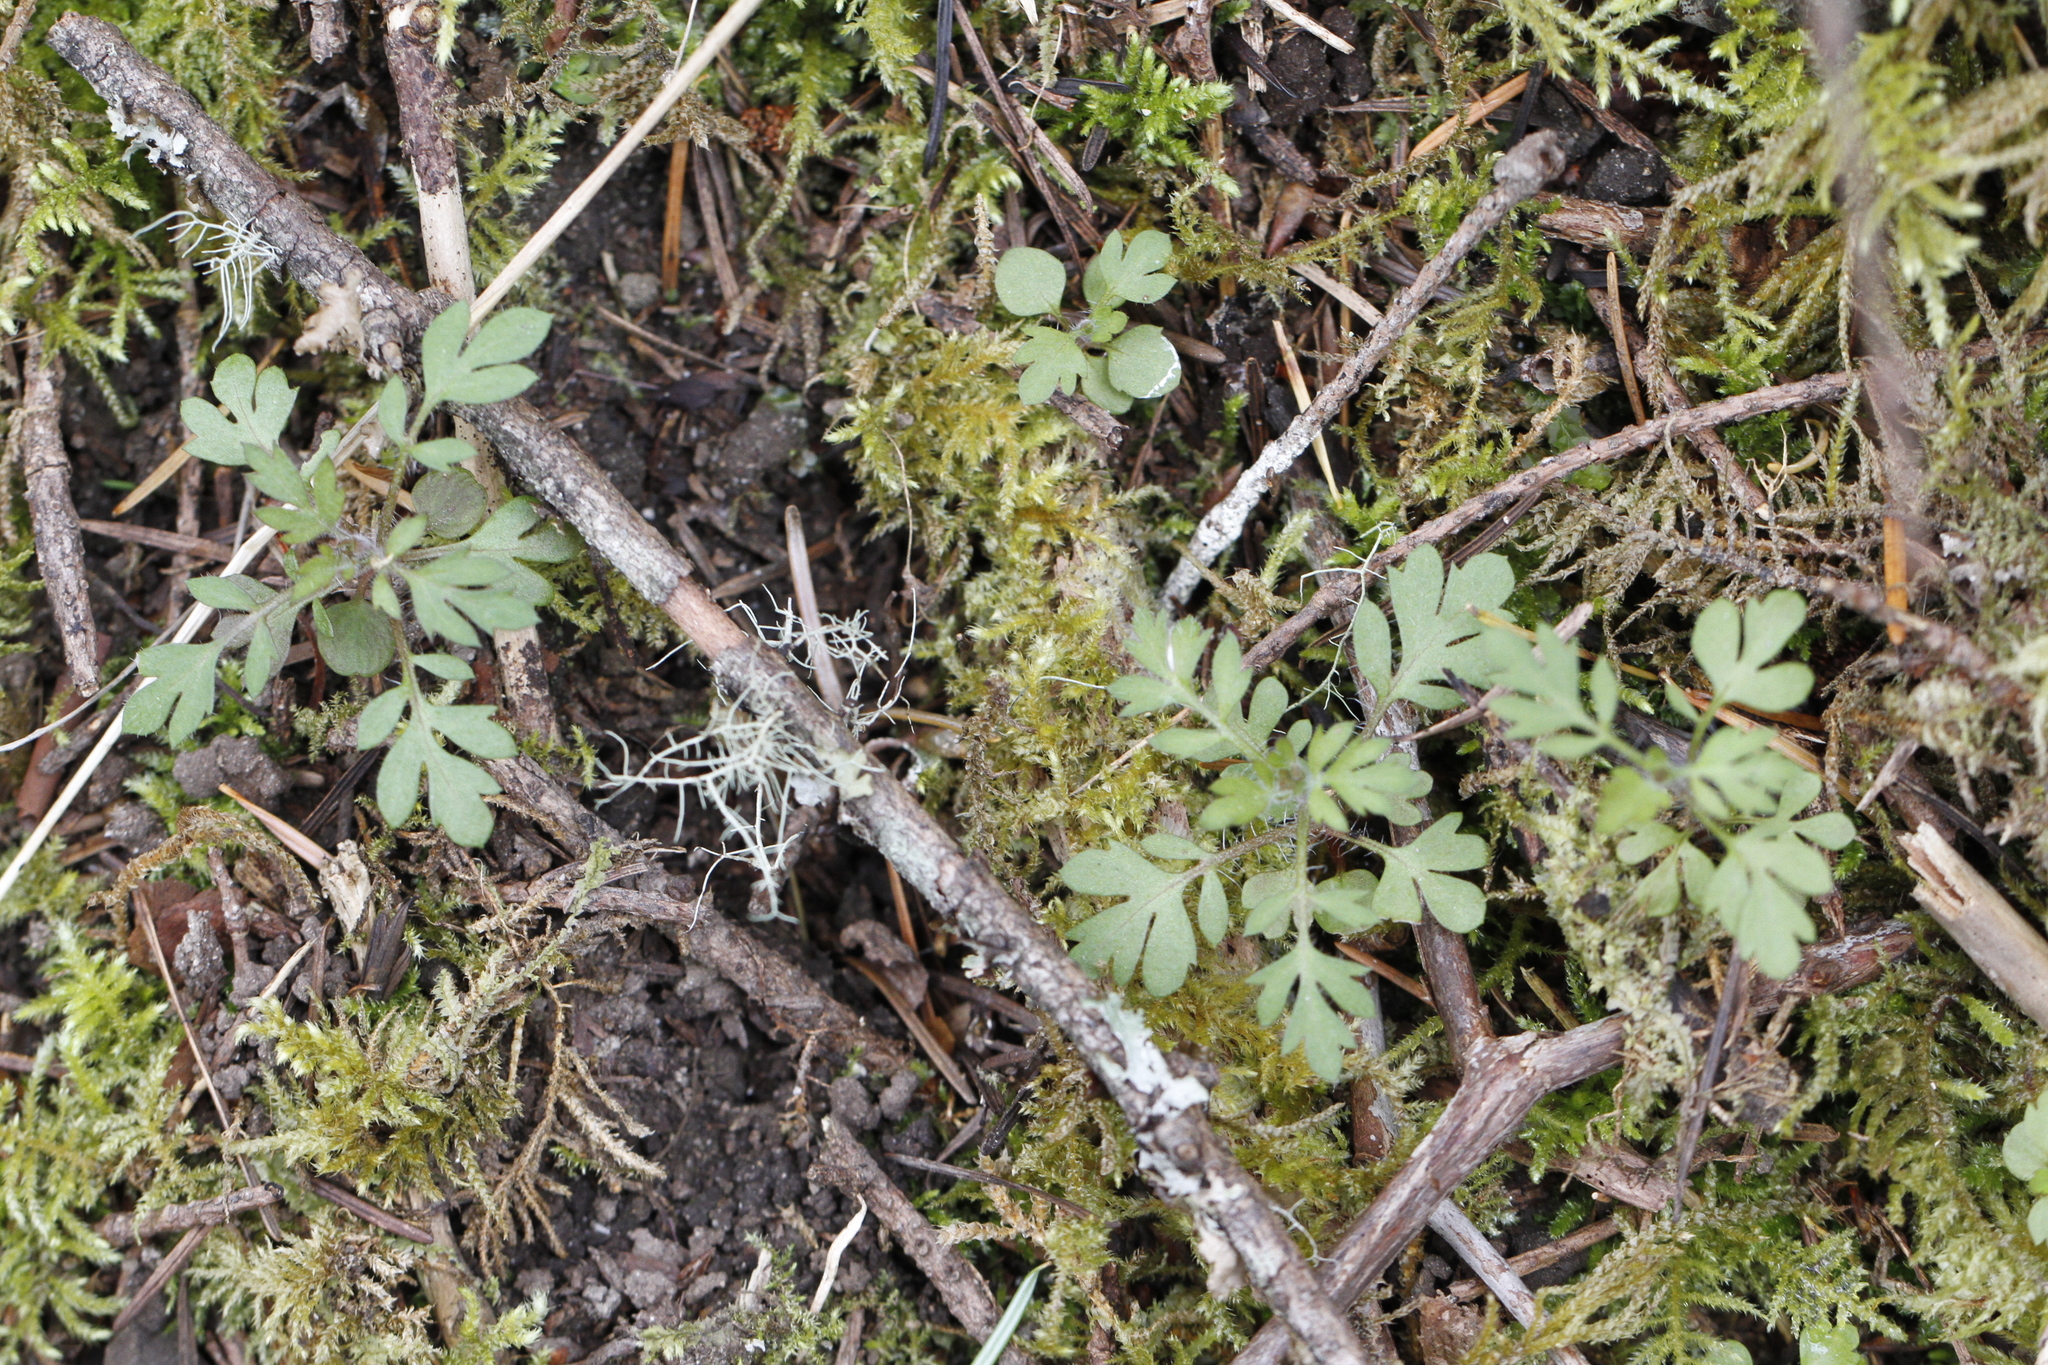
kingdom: Plantae
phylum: Tracheophyta
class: Magnoliopsida
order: Ericales
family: Polemoniaceae
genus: Collomia
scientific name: Collomia heterophylla
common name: Variable-leaved collomia
